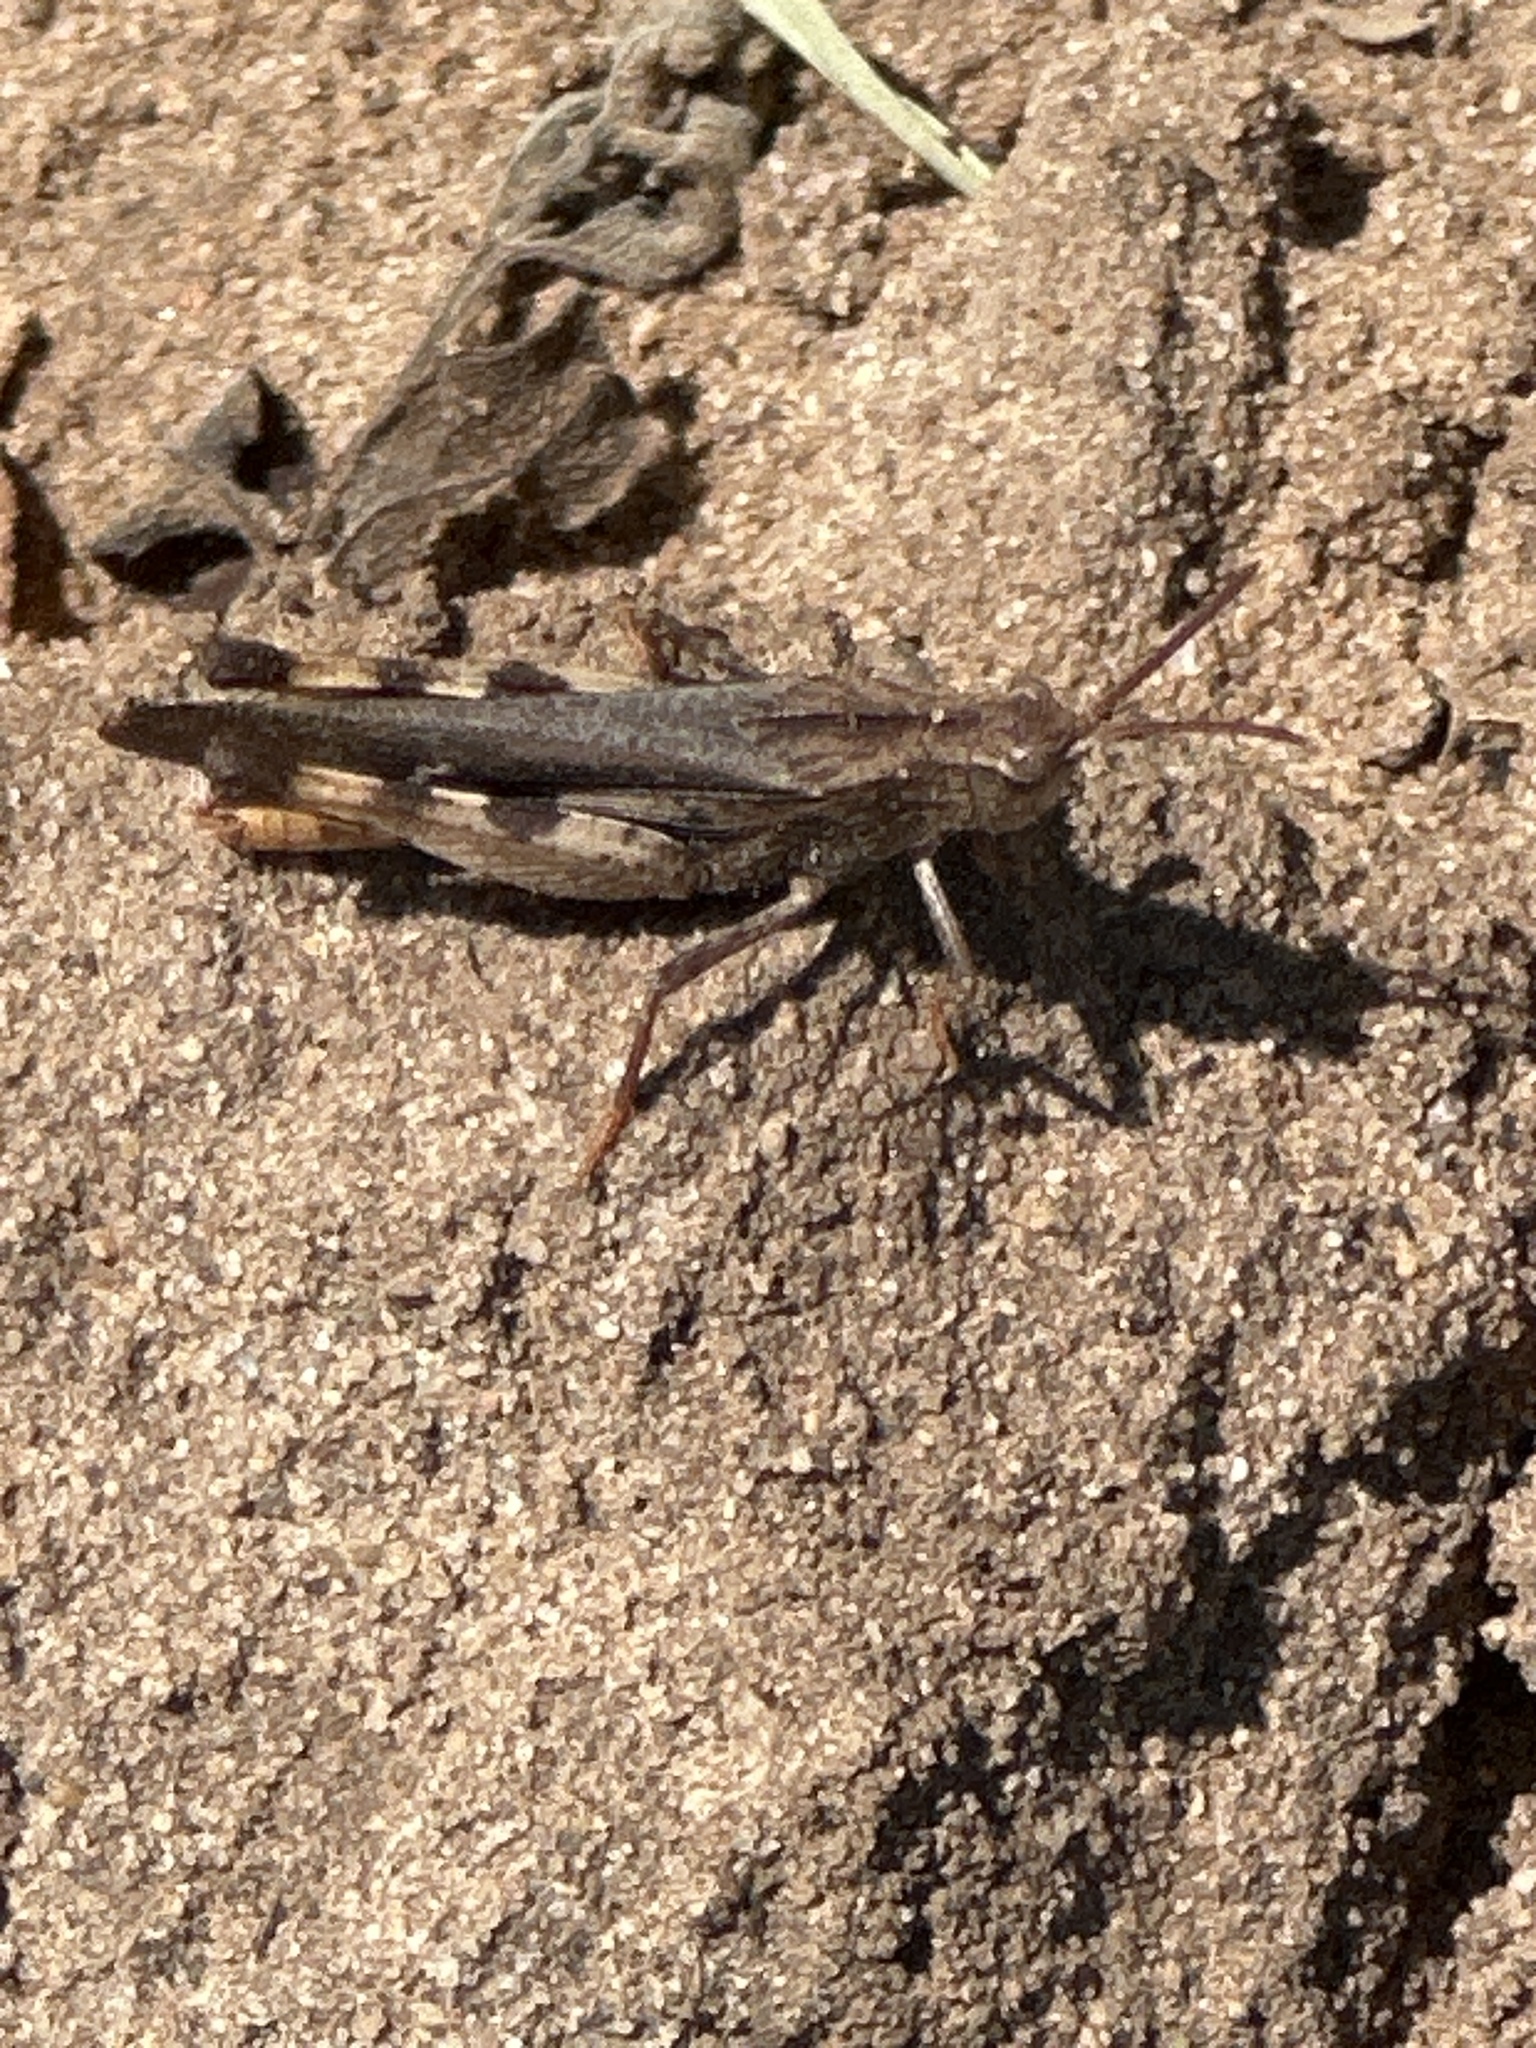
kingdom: Animalia
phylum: Arthropoda
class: Insecta
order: Orthoptera
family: Acrididae
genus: Chortophaga
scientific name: Chortophaga viridifasciata
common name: Green-striped grasshopper
